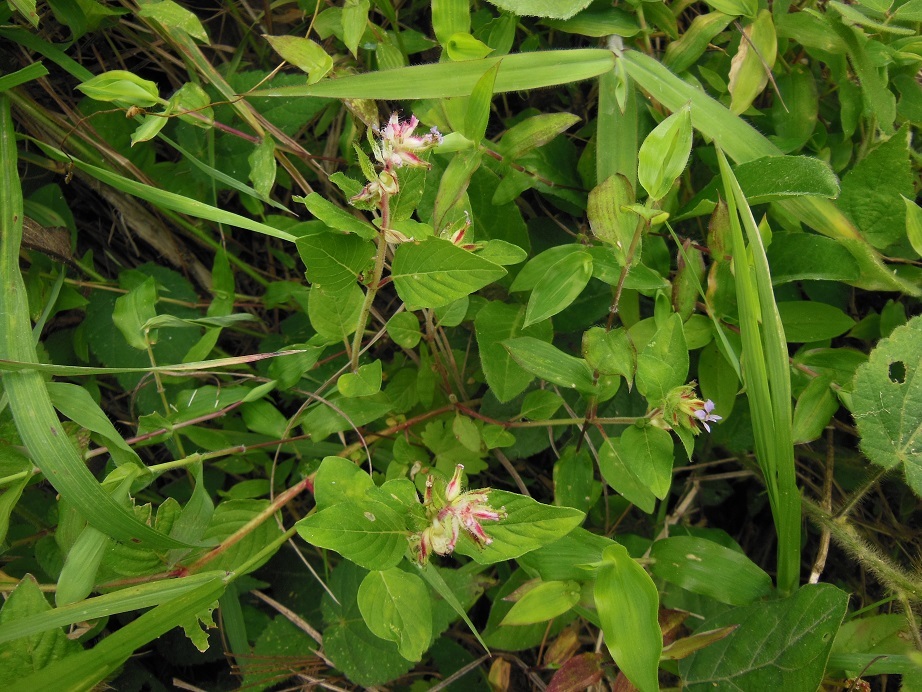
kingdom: Plantae
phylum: Tracheophyta
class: Magnoliopsida
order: Myrtales
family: Lythraceae
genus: Cuphea
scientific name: Cuphea vesiculigera
